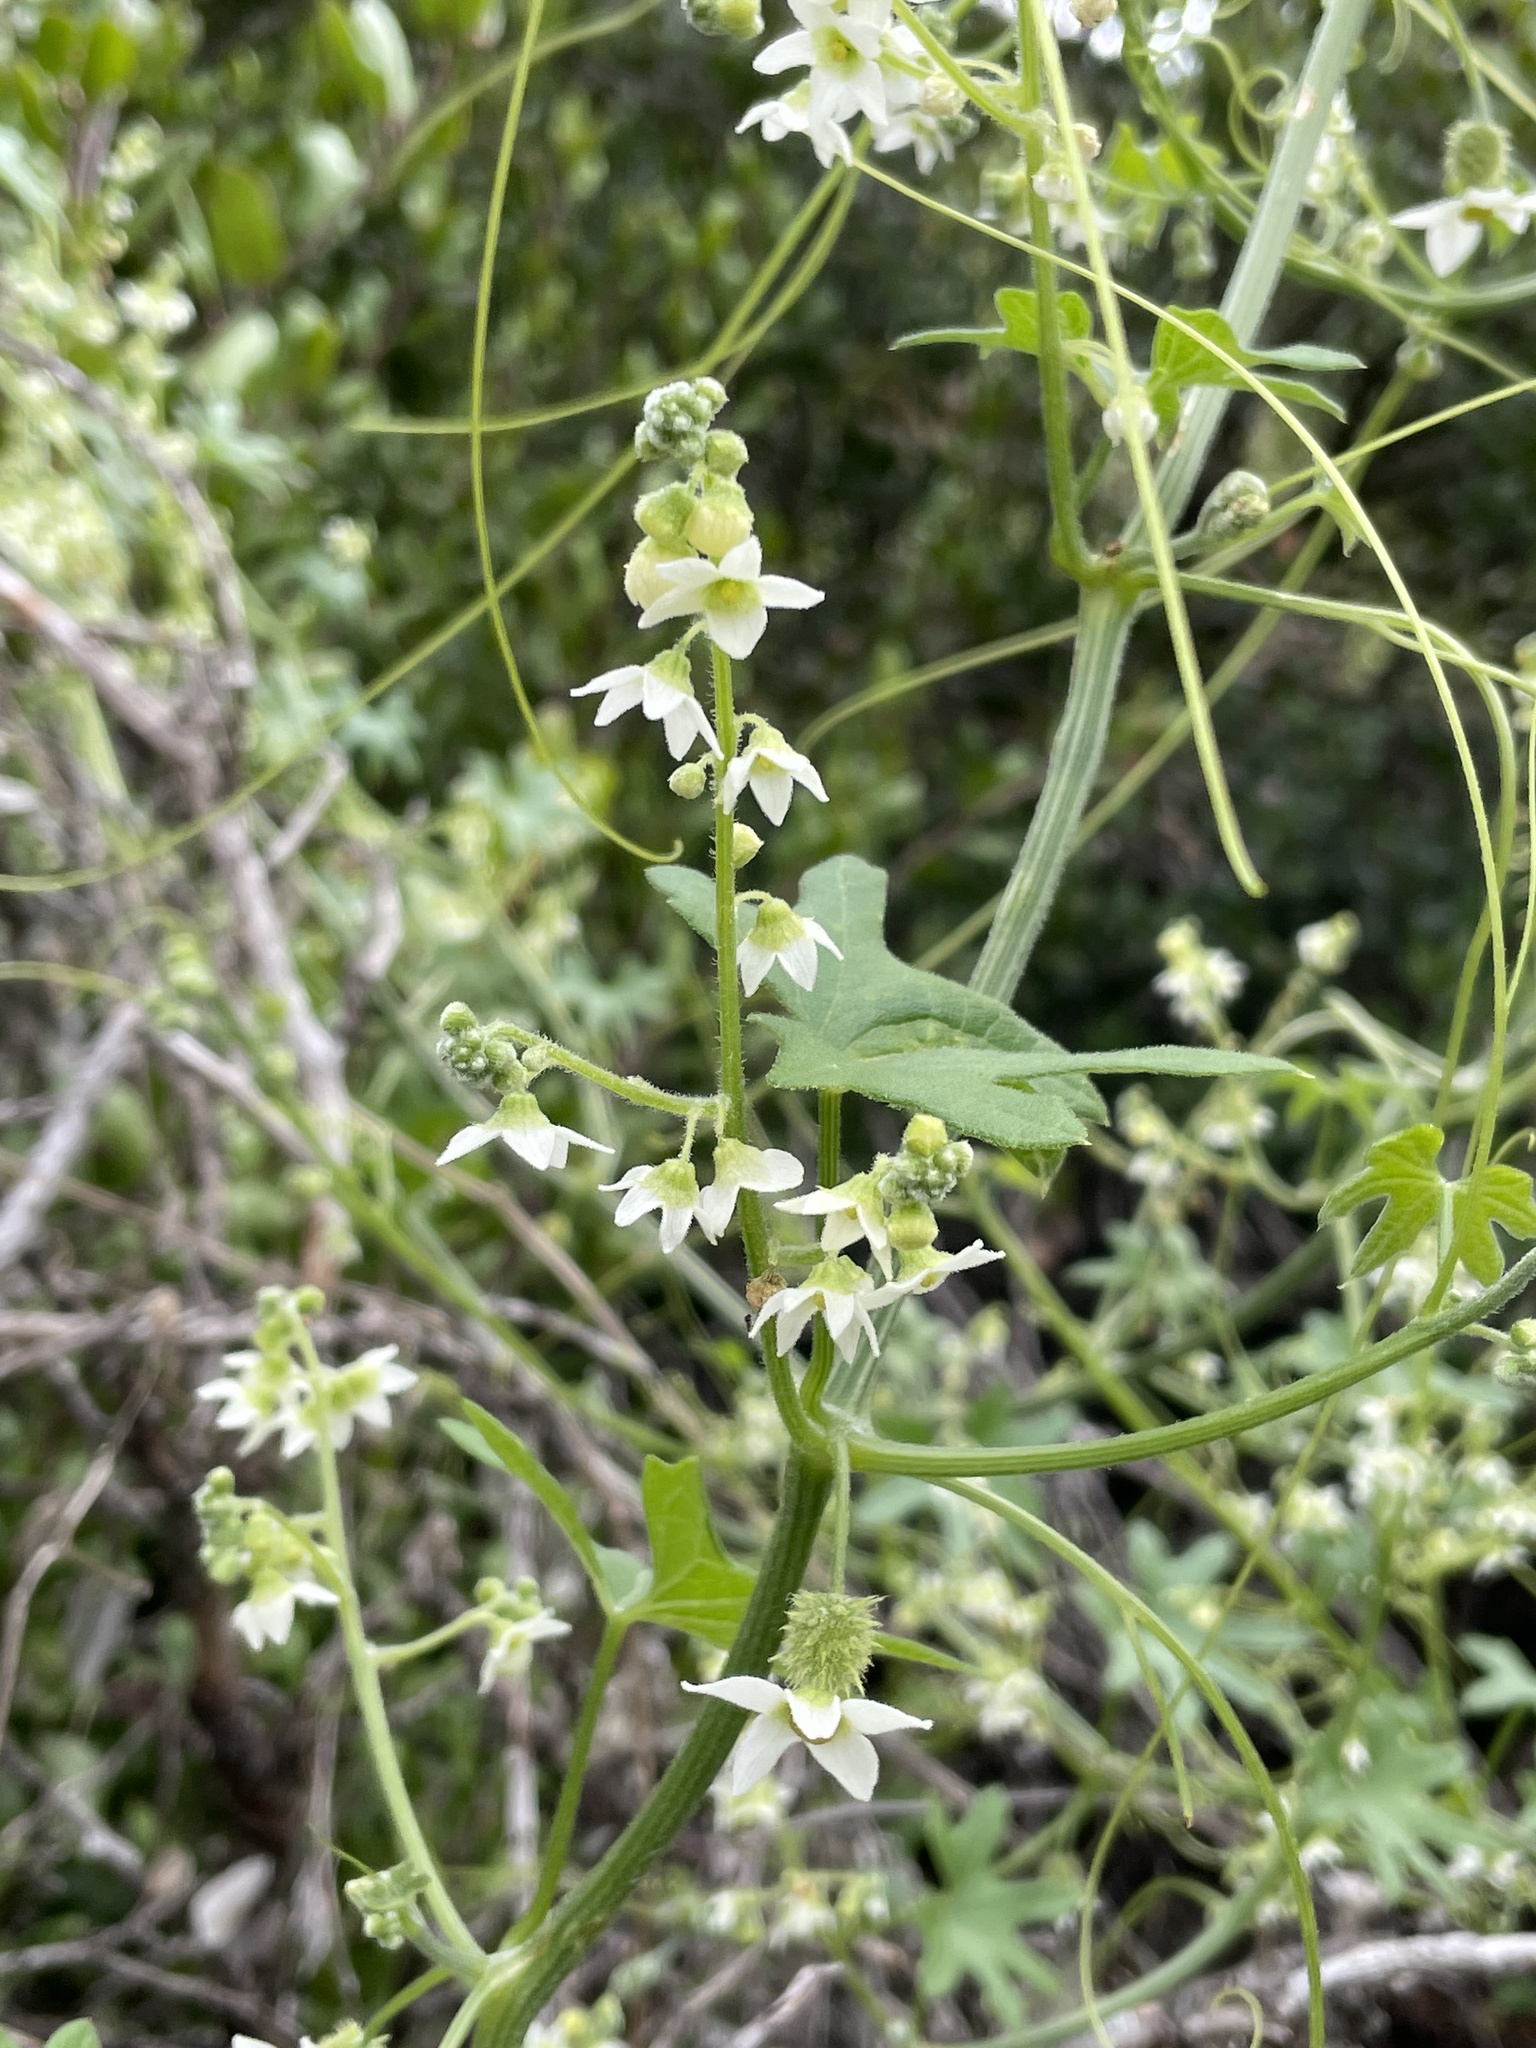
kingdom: Plantae
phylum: Tracheophyta
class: Magnoliopsida
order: Cucurbitales
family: Cucurbitaceae
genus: Marah
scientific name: Marah macrocarpa
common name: Cucamonga manroot
